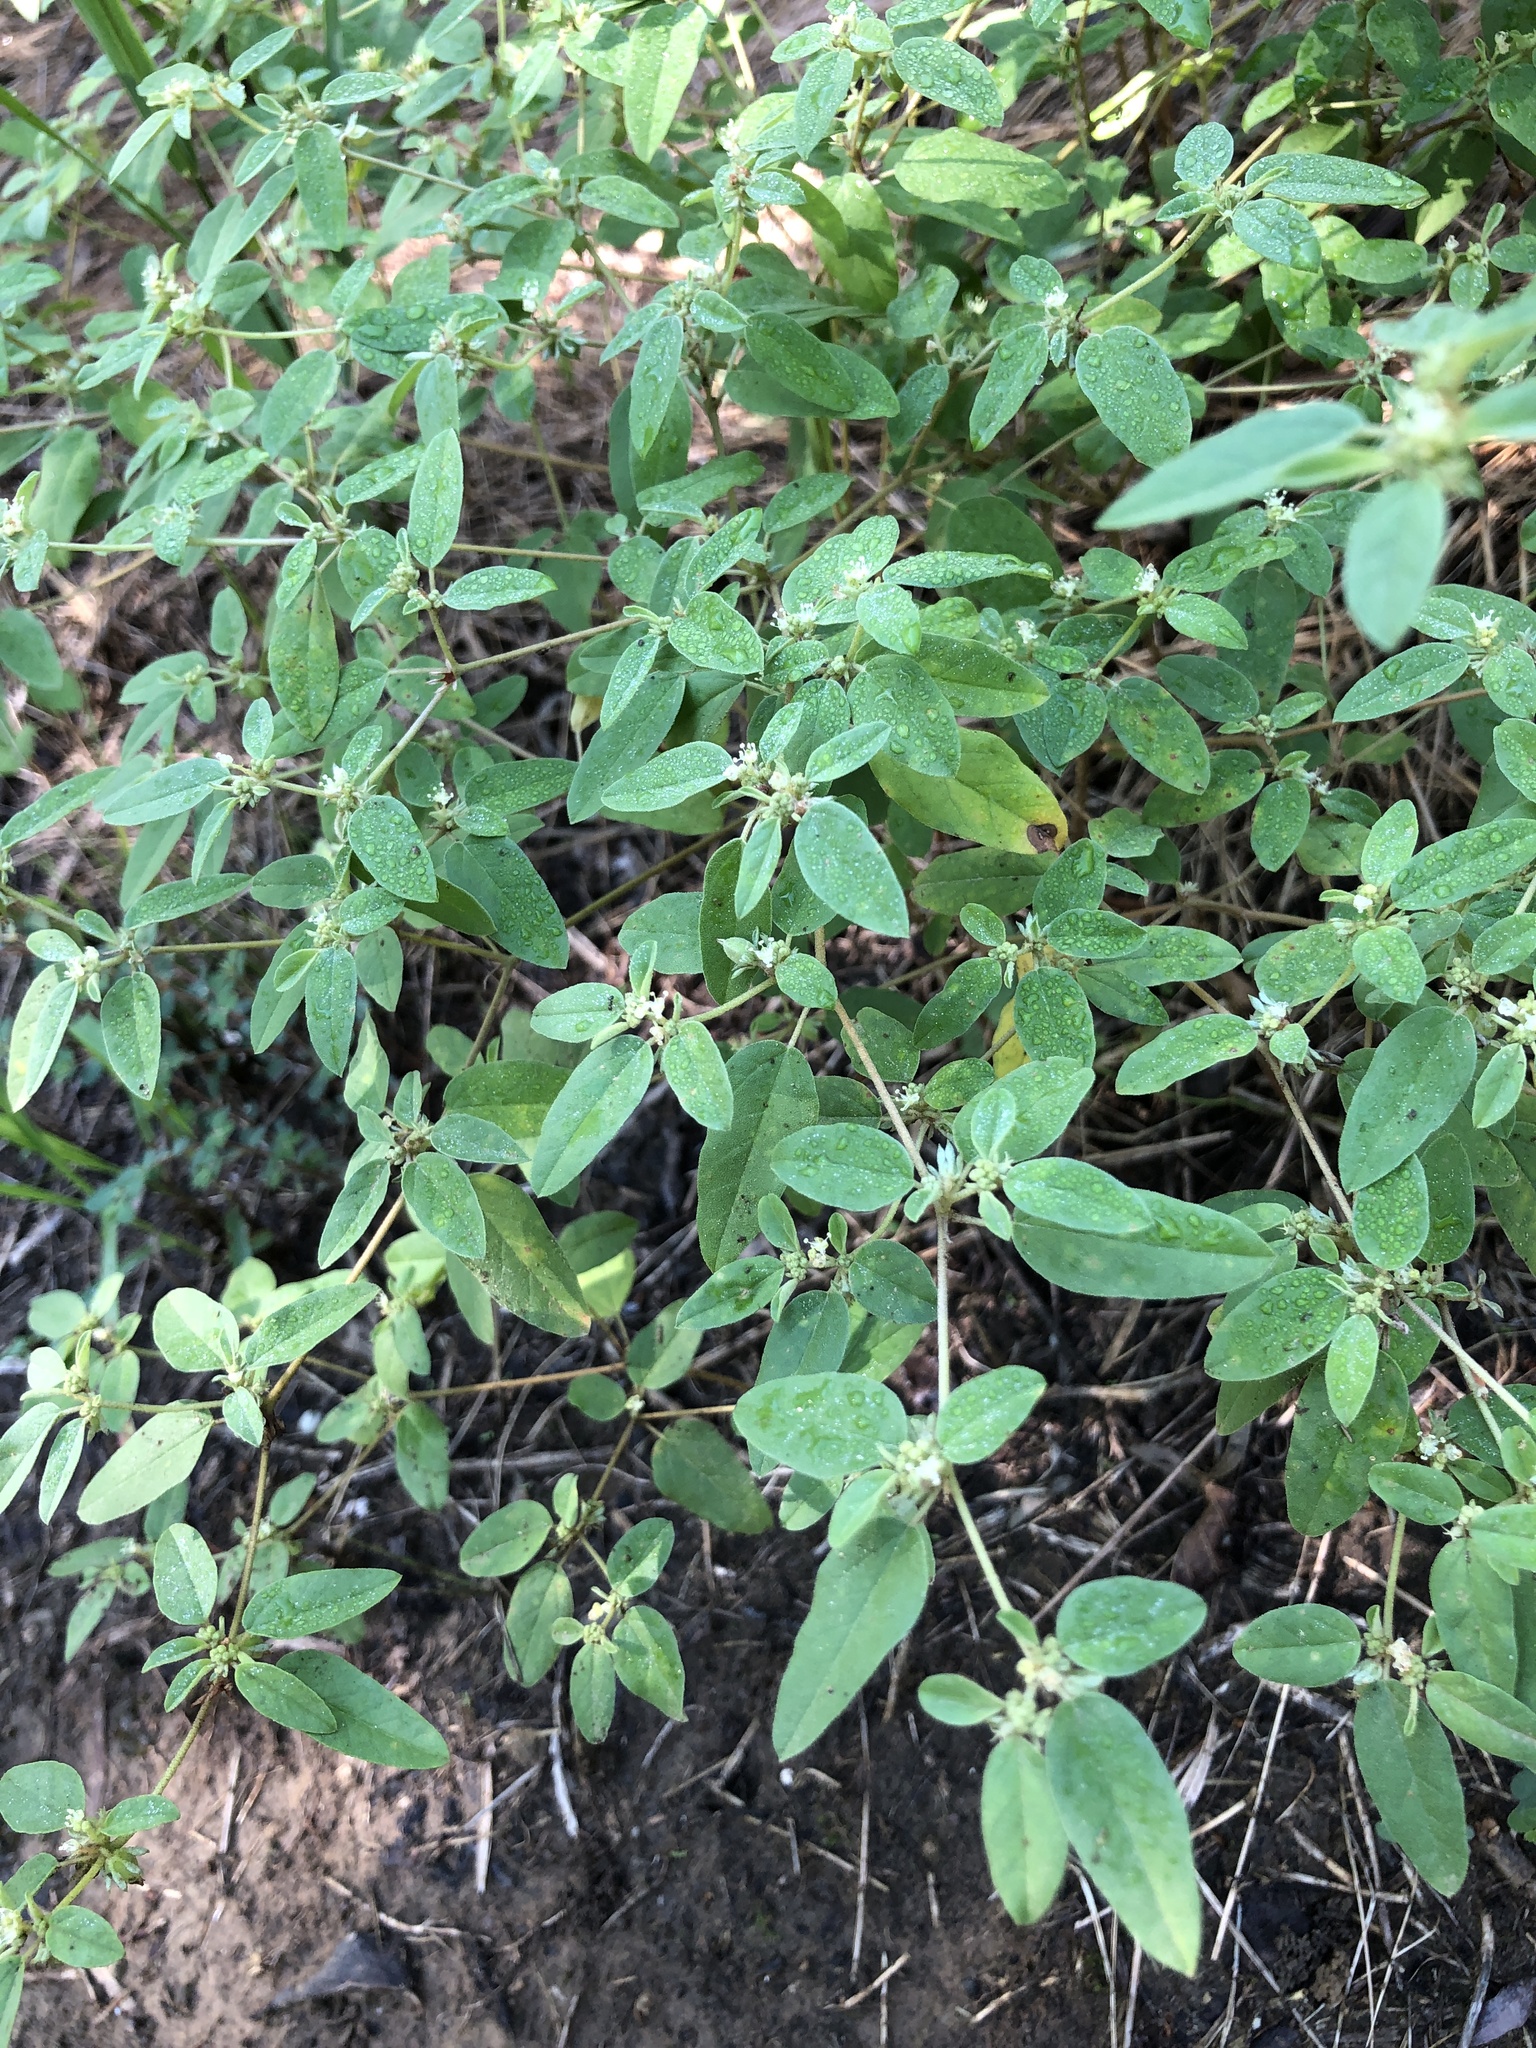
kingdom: Plantae
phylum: Tracheophyta
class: Magnoliopsida
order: Malpighiales
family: Euphorbiaceae
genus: Croton
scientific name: Croton monanthogynus
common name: One-seed croton
